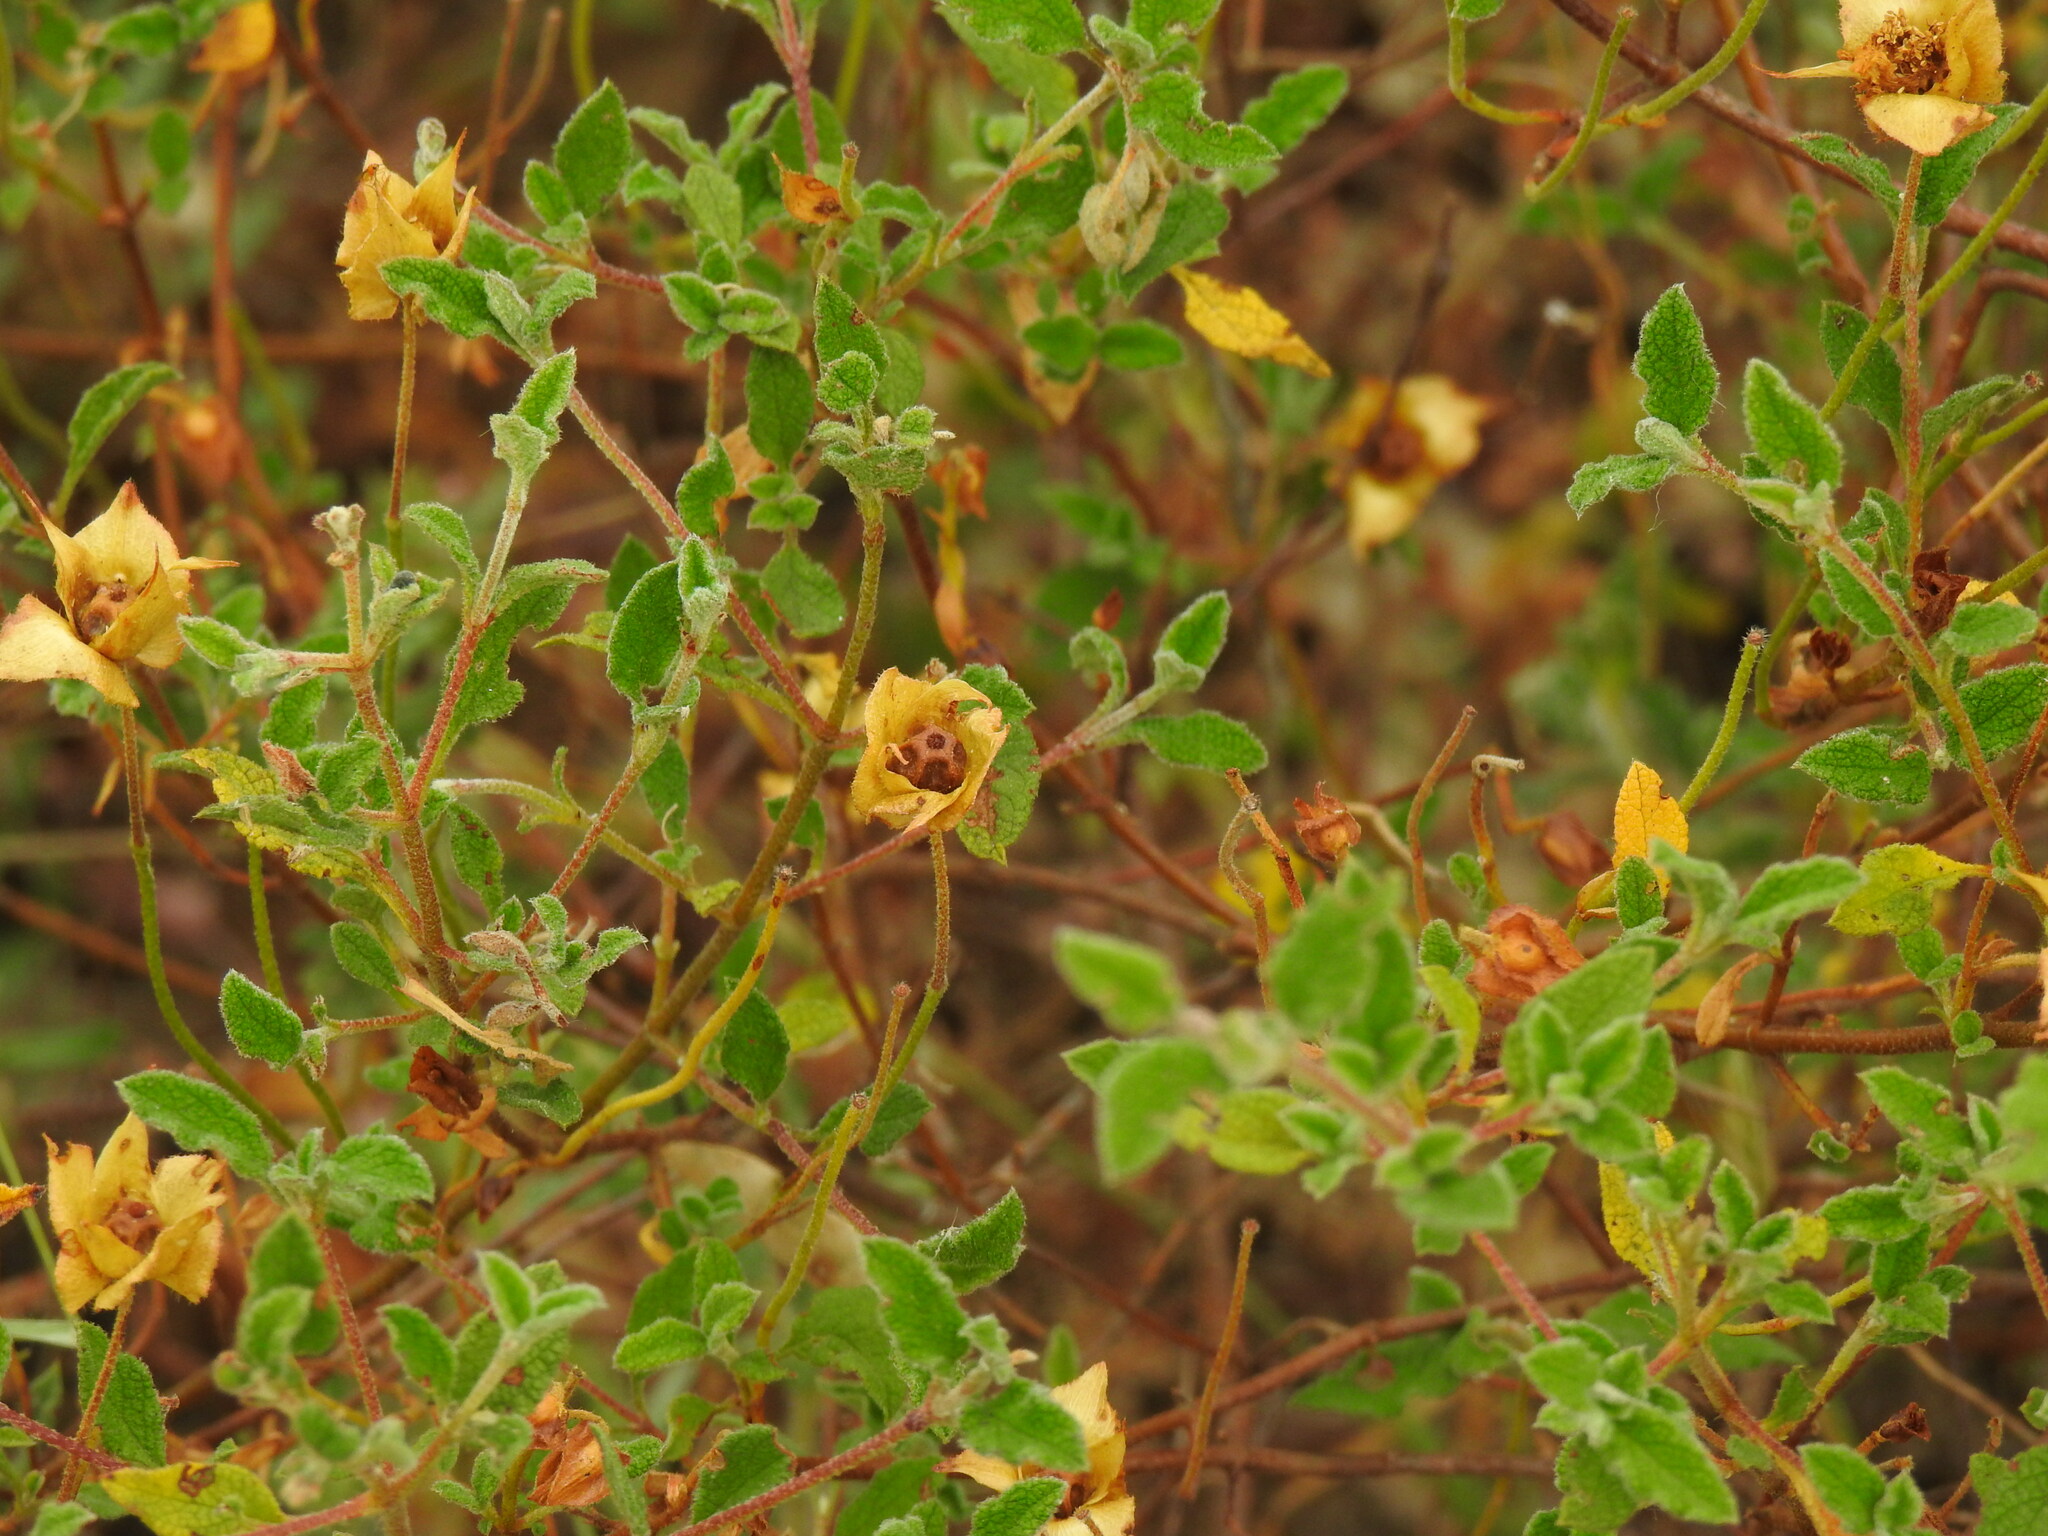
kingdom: Plantae
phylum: Tracheophyta
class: Magnoliopsida
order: Malvales
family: Cistaceae
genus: Cistus
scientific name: Cistus salviifolius
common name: Salvia cistus
